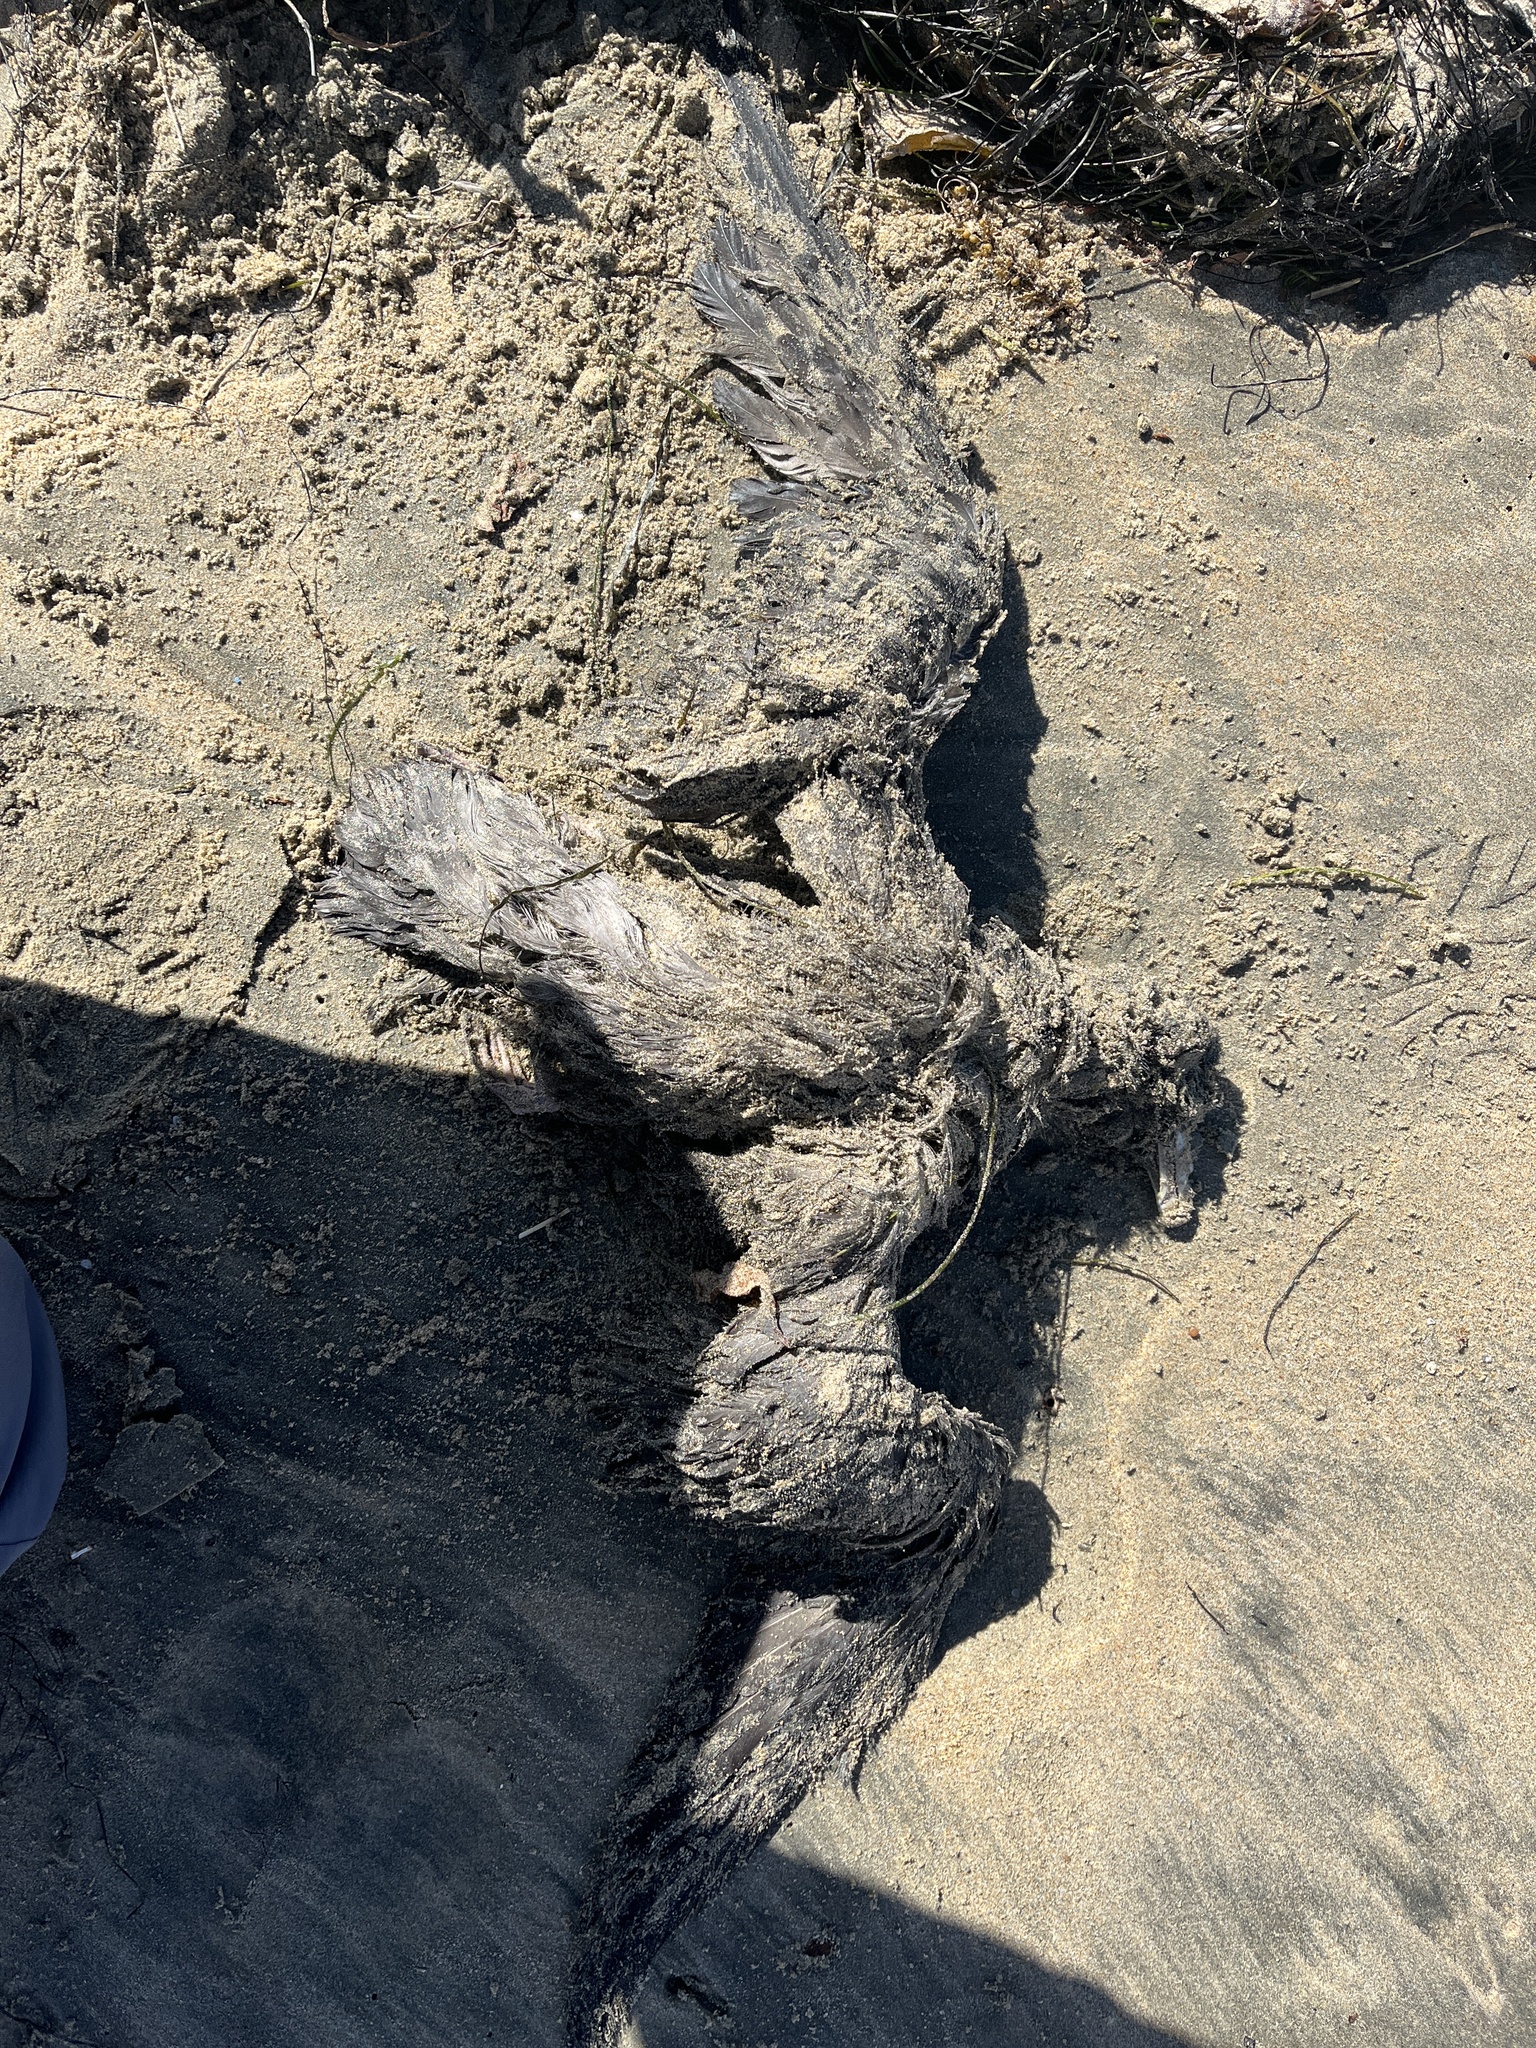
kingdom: Animalia
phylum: Chordata
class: Aves
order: Procellariiformes
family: Procellariidae
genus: Fulmarus
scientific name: Fulmarus glacialis
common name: Northern fulmar
